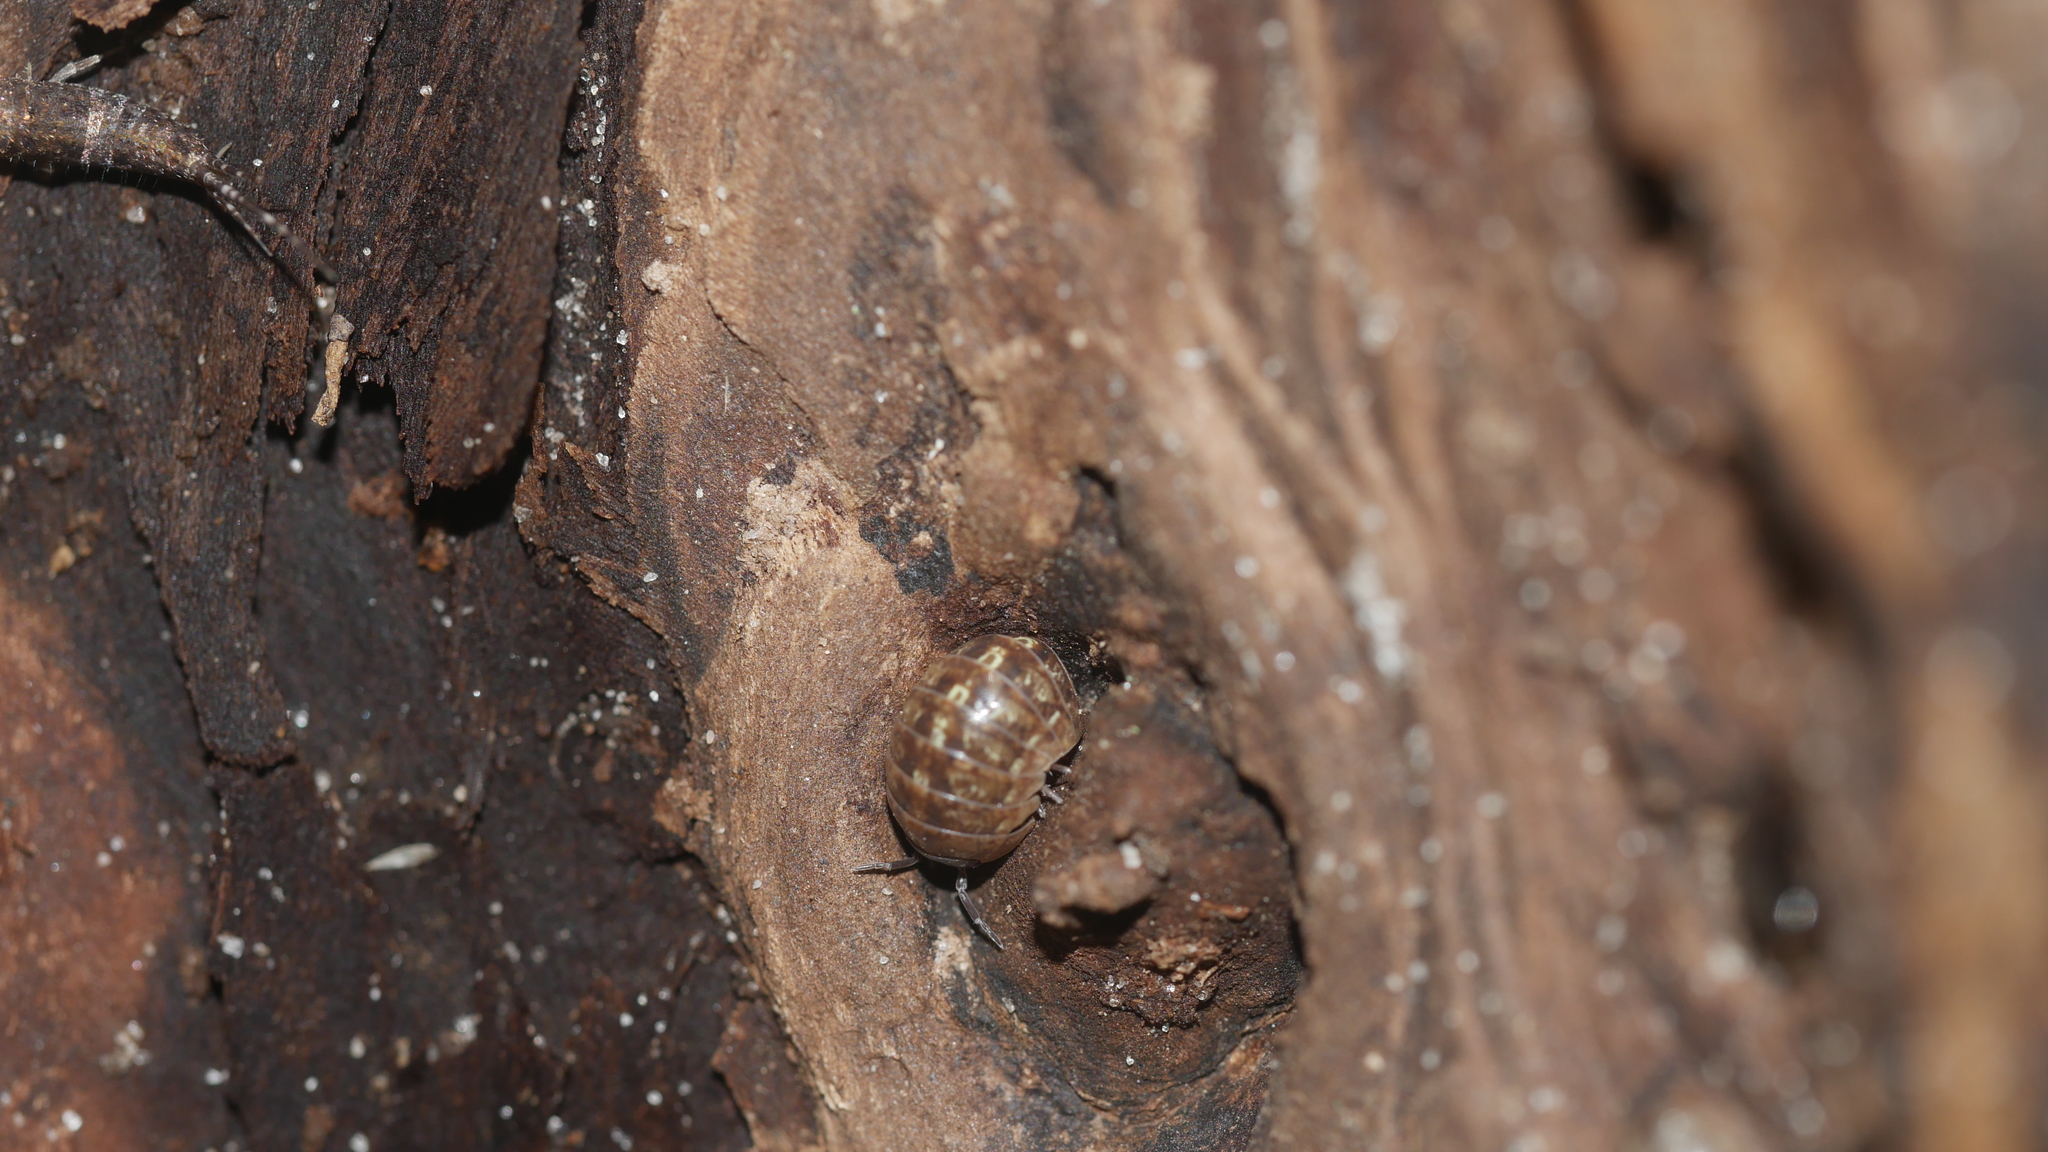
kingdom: Animalia
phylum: Arthropoda
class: Malacostraca
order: Isopoda
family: Armadillidiidae
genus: Armadillidium
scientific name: Armadillidium vulgare
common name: Common pill woodlouse
